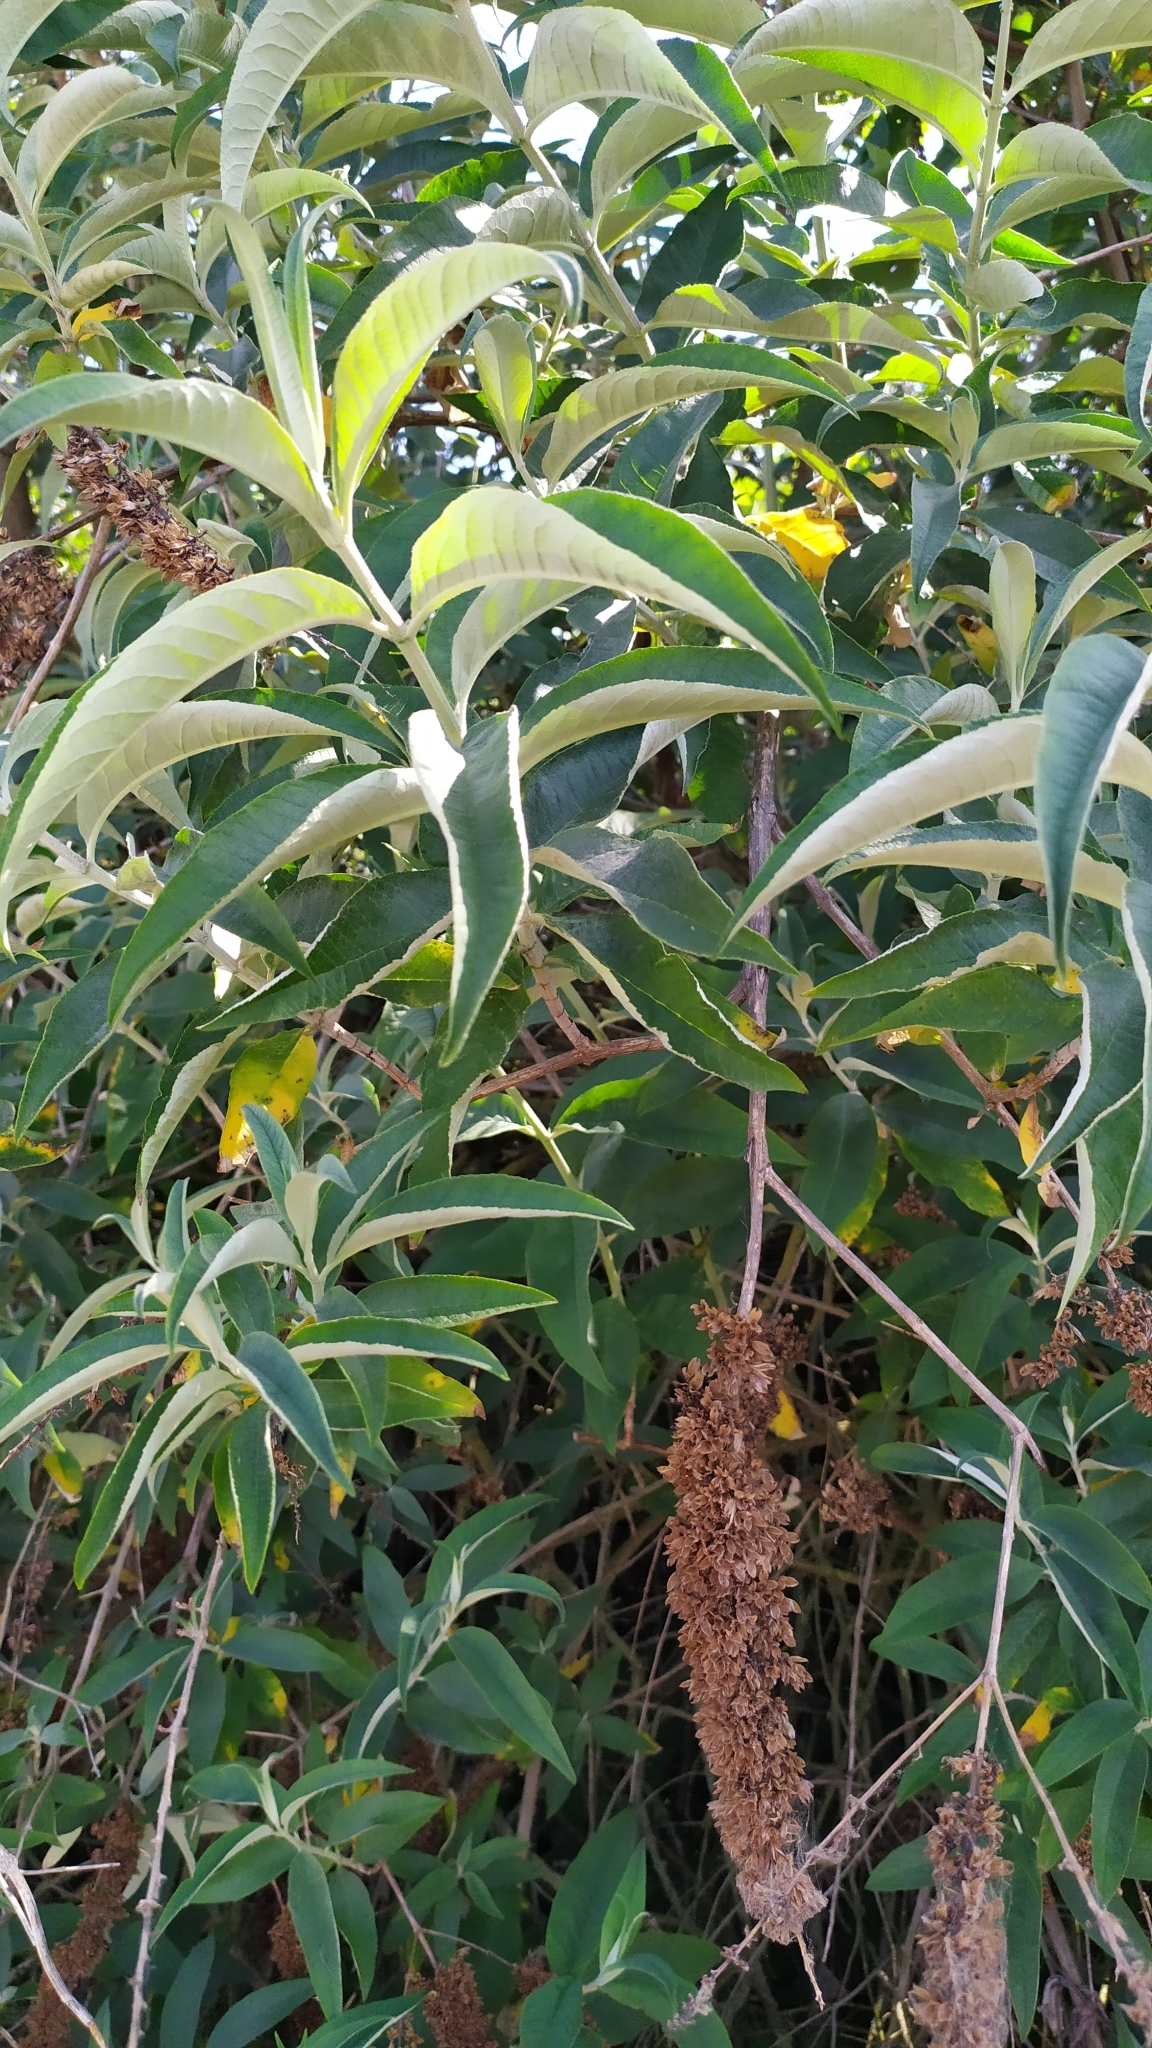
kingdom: Plantae
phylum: Tracheophyta
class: Magnoliopsida
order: Lamiales
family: Scrophulariaceae
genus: Buddleja
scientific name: Buddleja davidii
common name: Butterfly-bush
